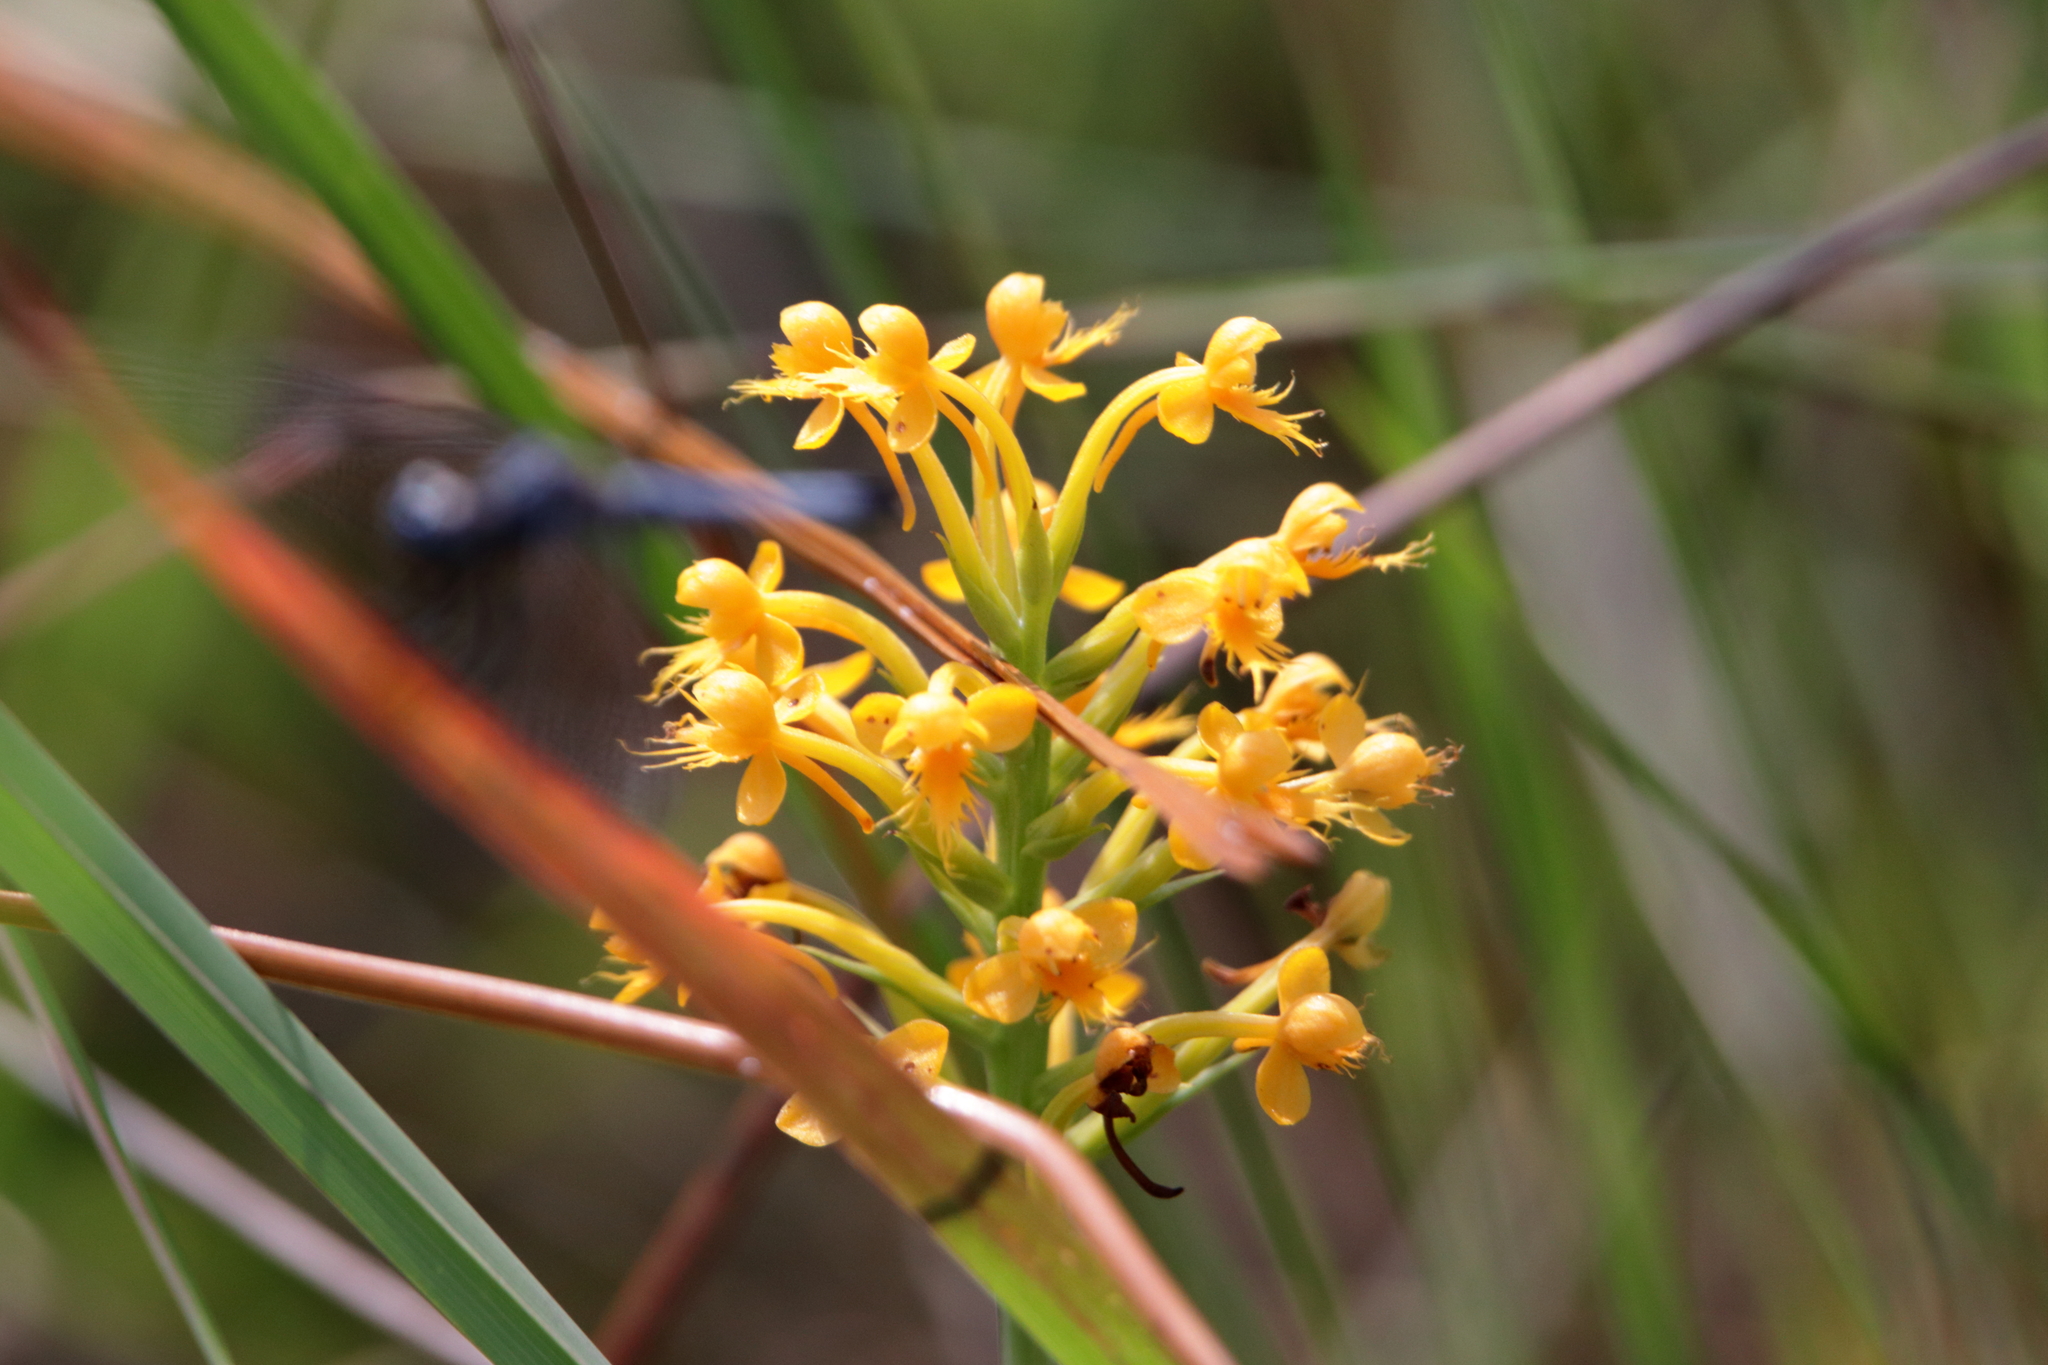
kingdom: Plantae
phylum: Tracheophyta
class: Liliopsida
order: Asparagales
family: Orchidaceae
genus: Platanthera
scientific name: Platanthera cristata
